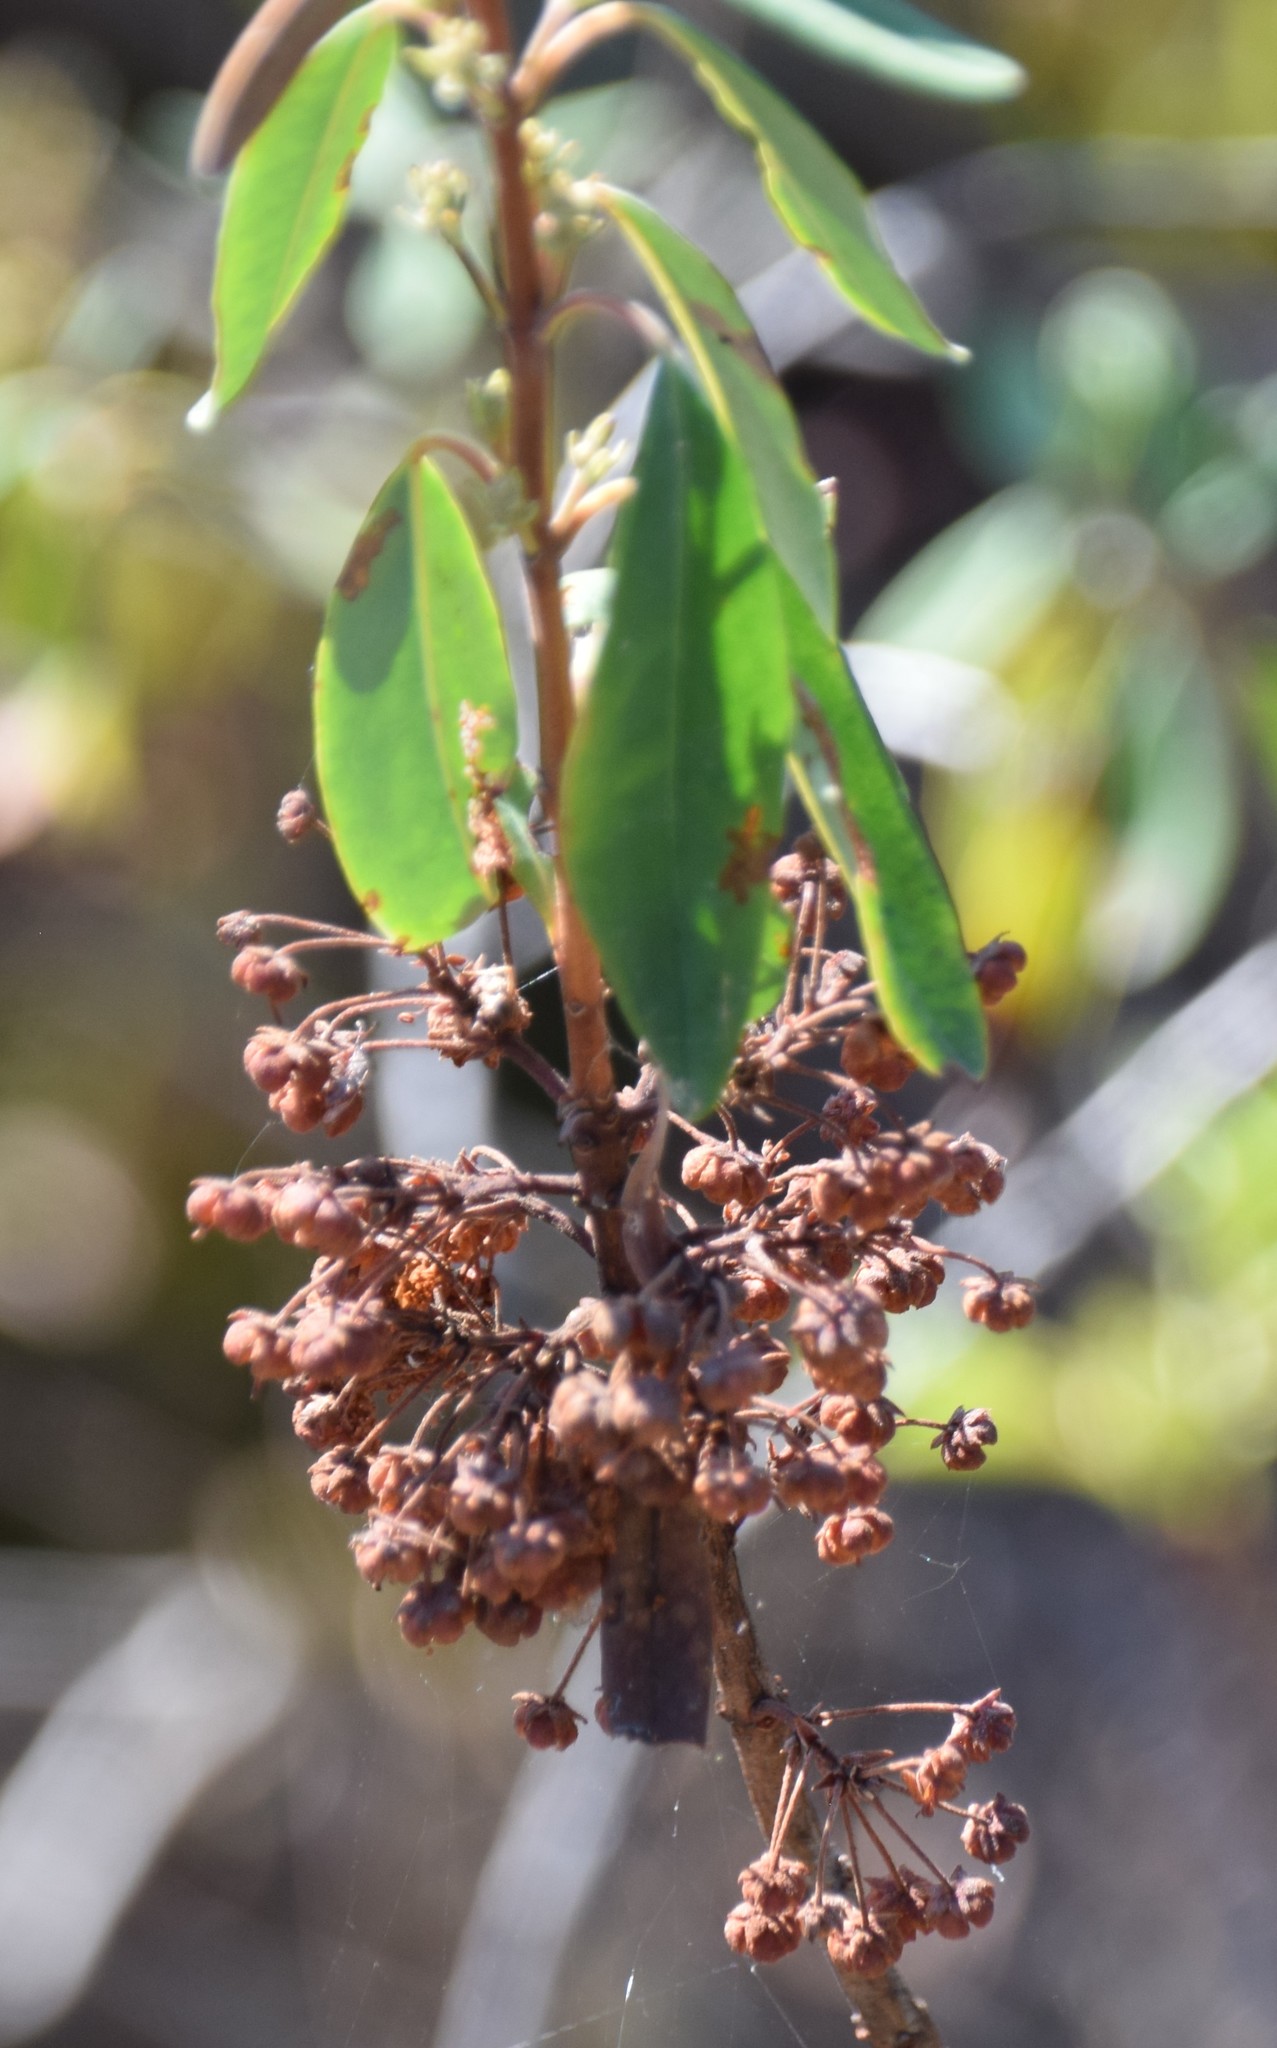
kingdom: Plantae
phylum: Tracheophyta
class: Magnoliopsida
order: Ericales
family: Ericaceae
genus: Kalmia
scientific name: Kalmia angustifolia
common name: Sheep-laurel
